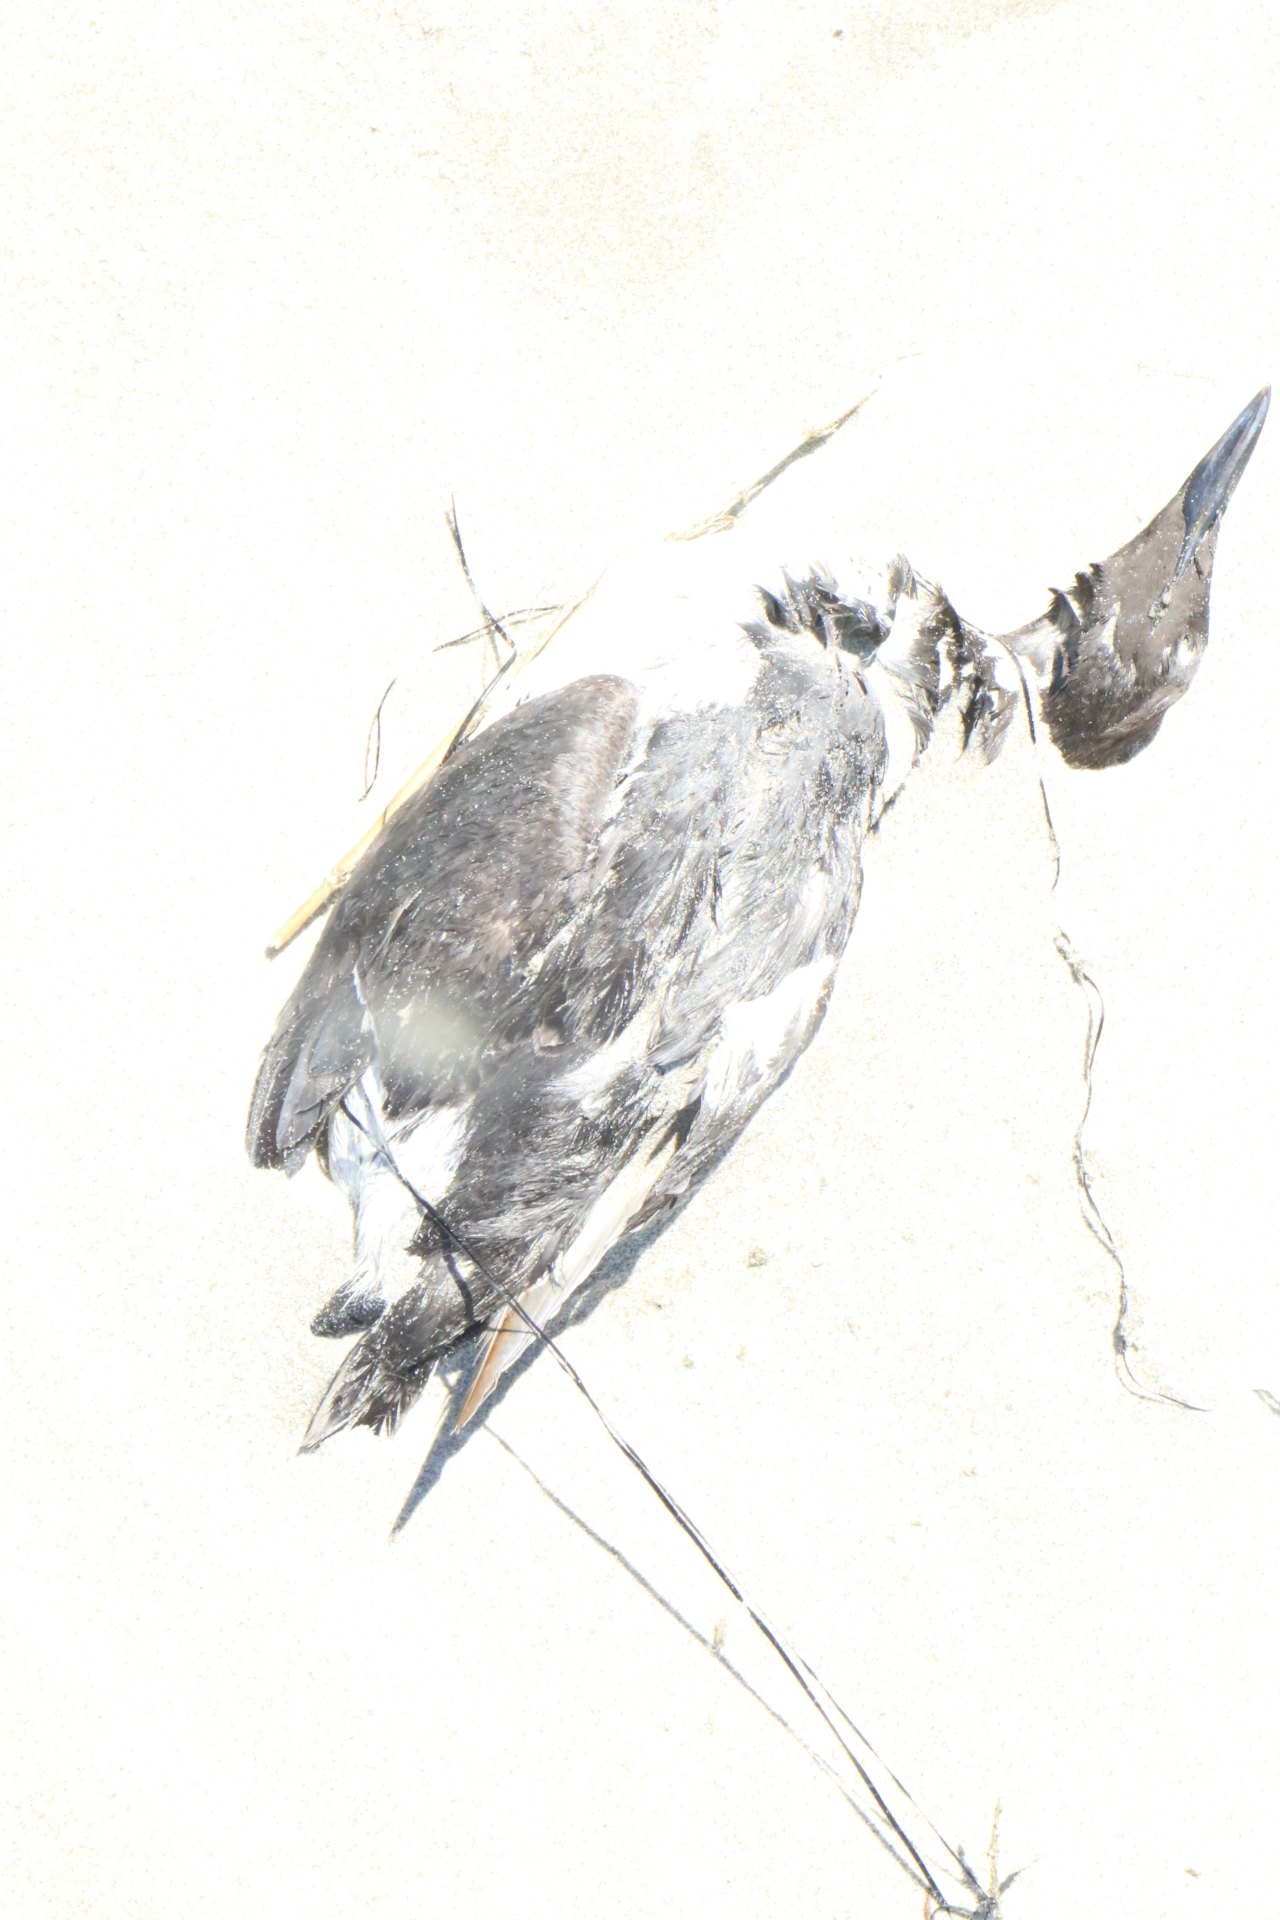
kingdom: Animalia
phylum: Chordata
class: Aves
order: Charadriiformes
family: Alcidae
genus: Uria
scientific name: Uria aalge
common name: Common murre
